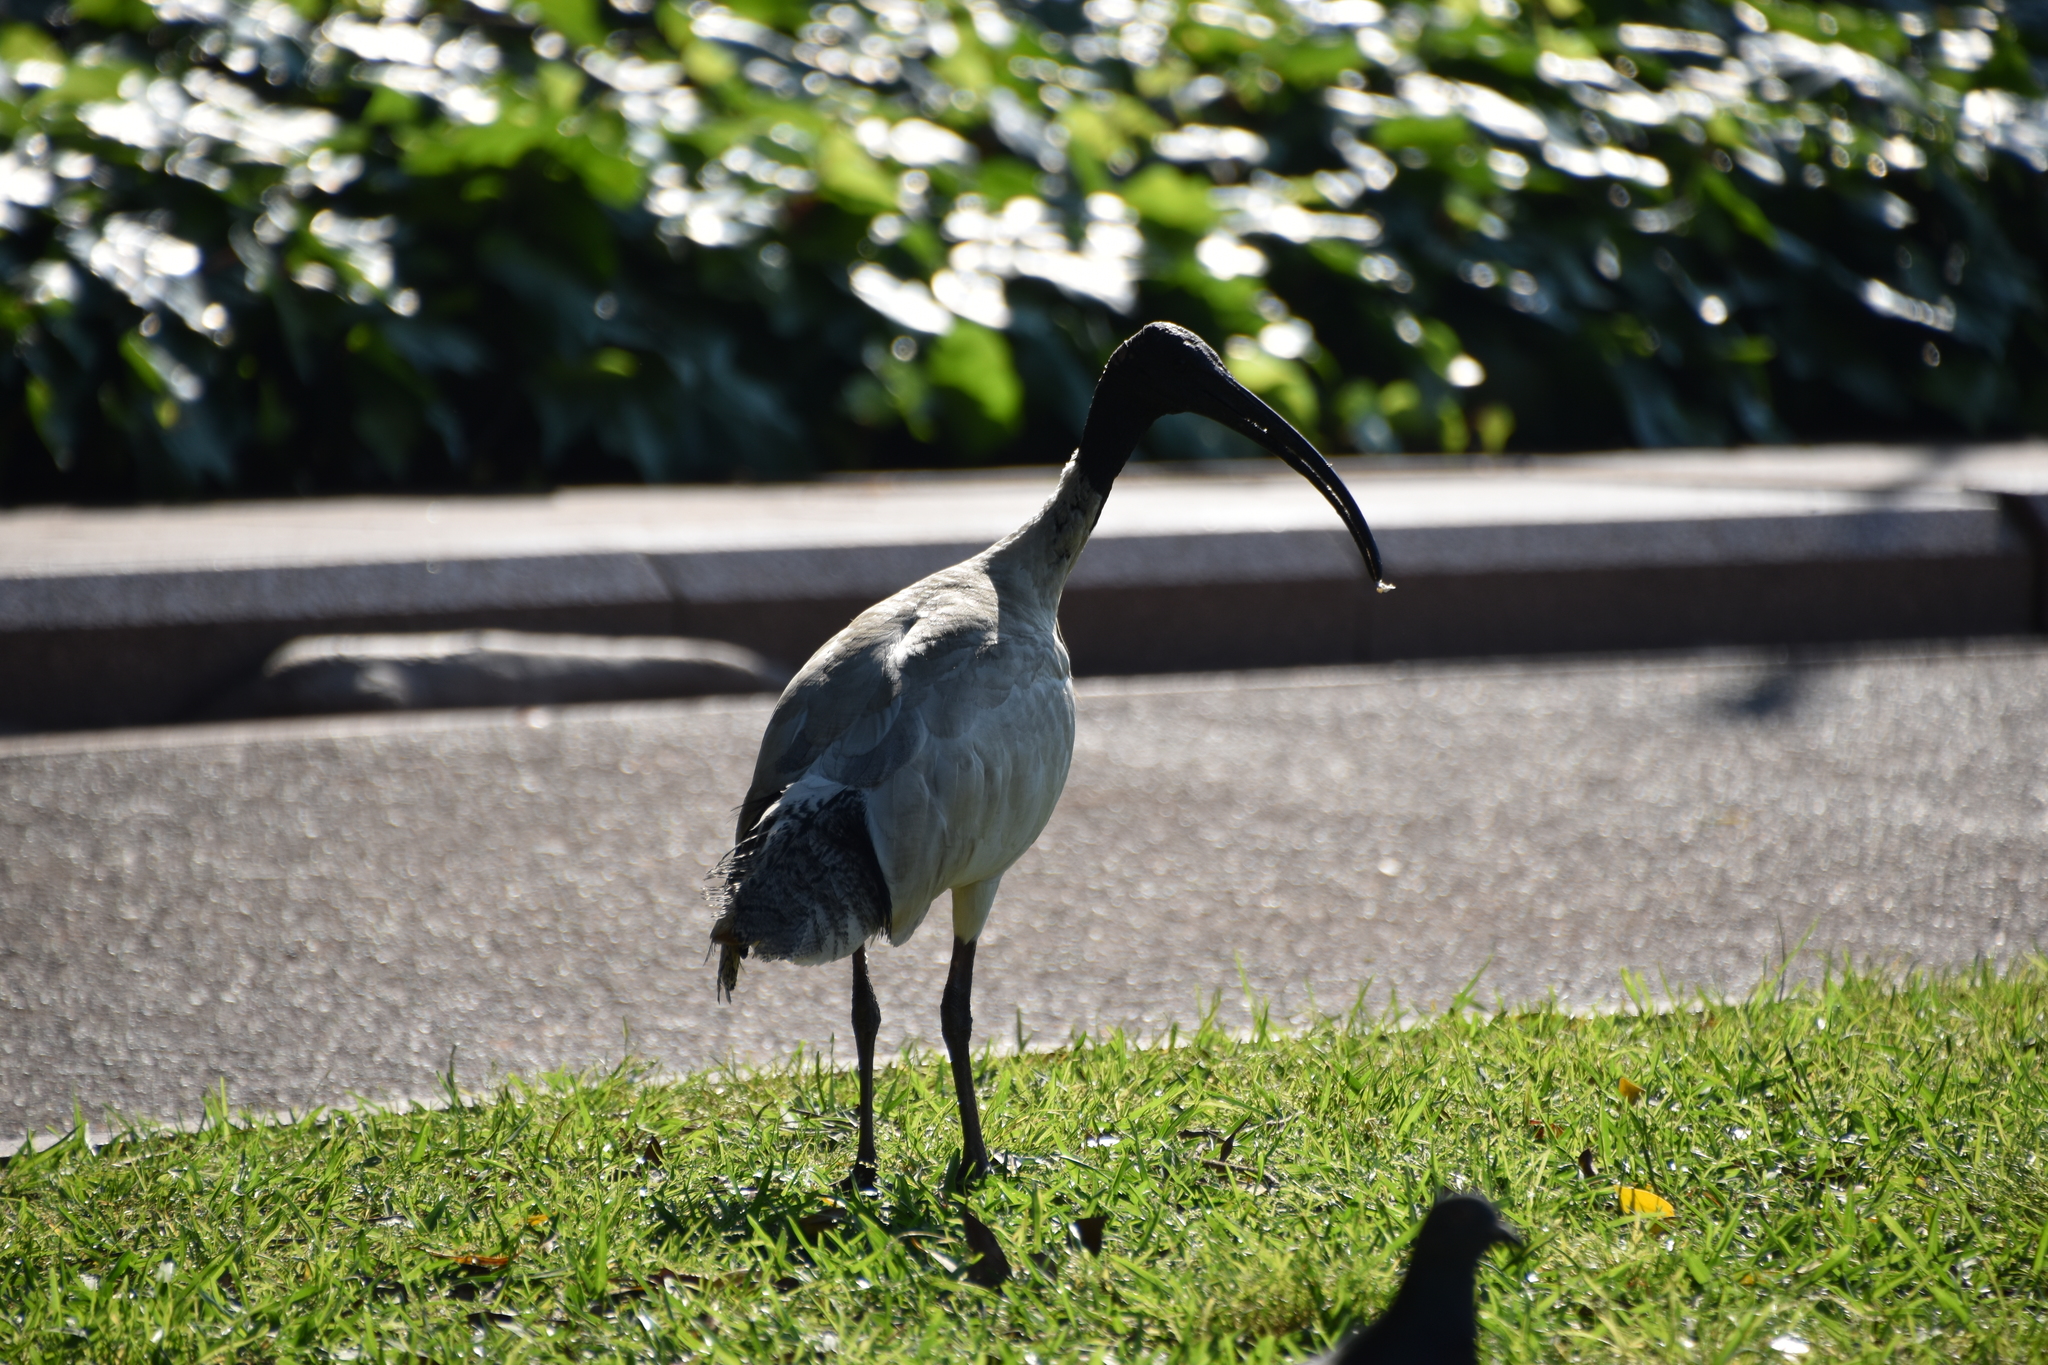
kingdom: Animalia
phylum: Chordata
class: Aves
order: Pelecaniformes
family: Threskiornithidae
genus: Threskiornis
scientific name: Threskiornis molucca
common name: Australian white ibis
